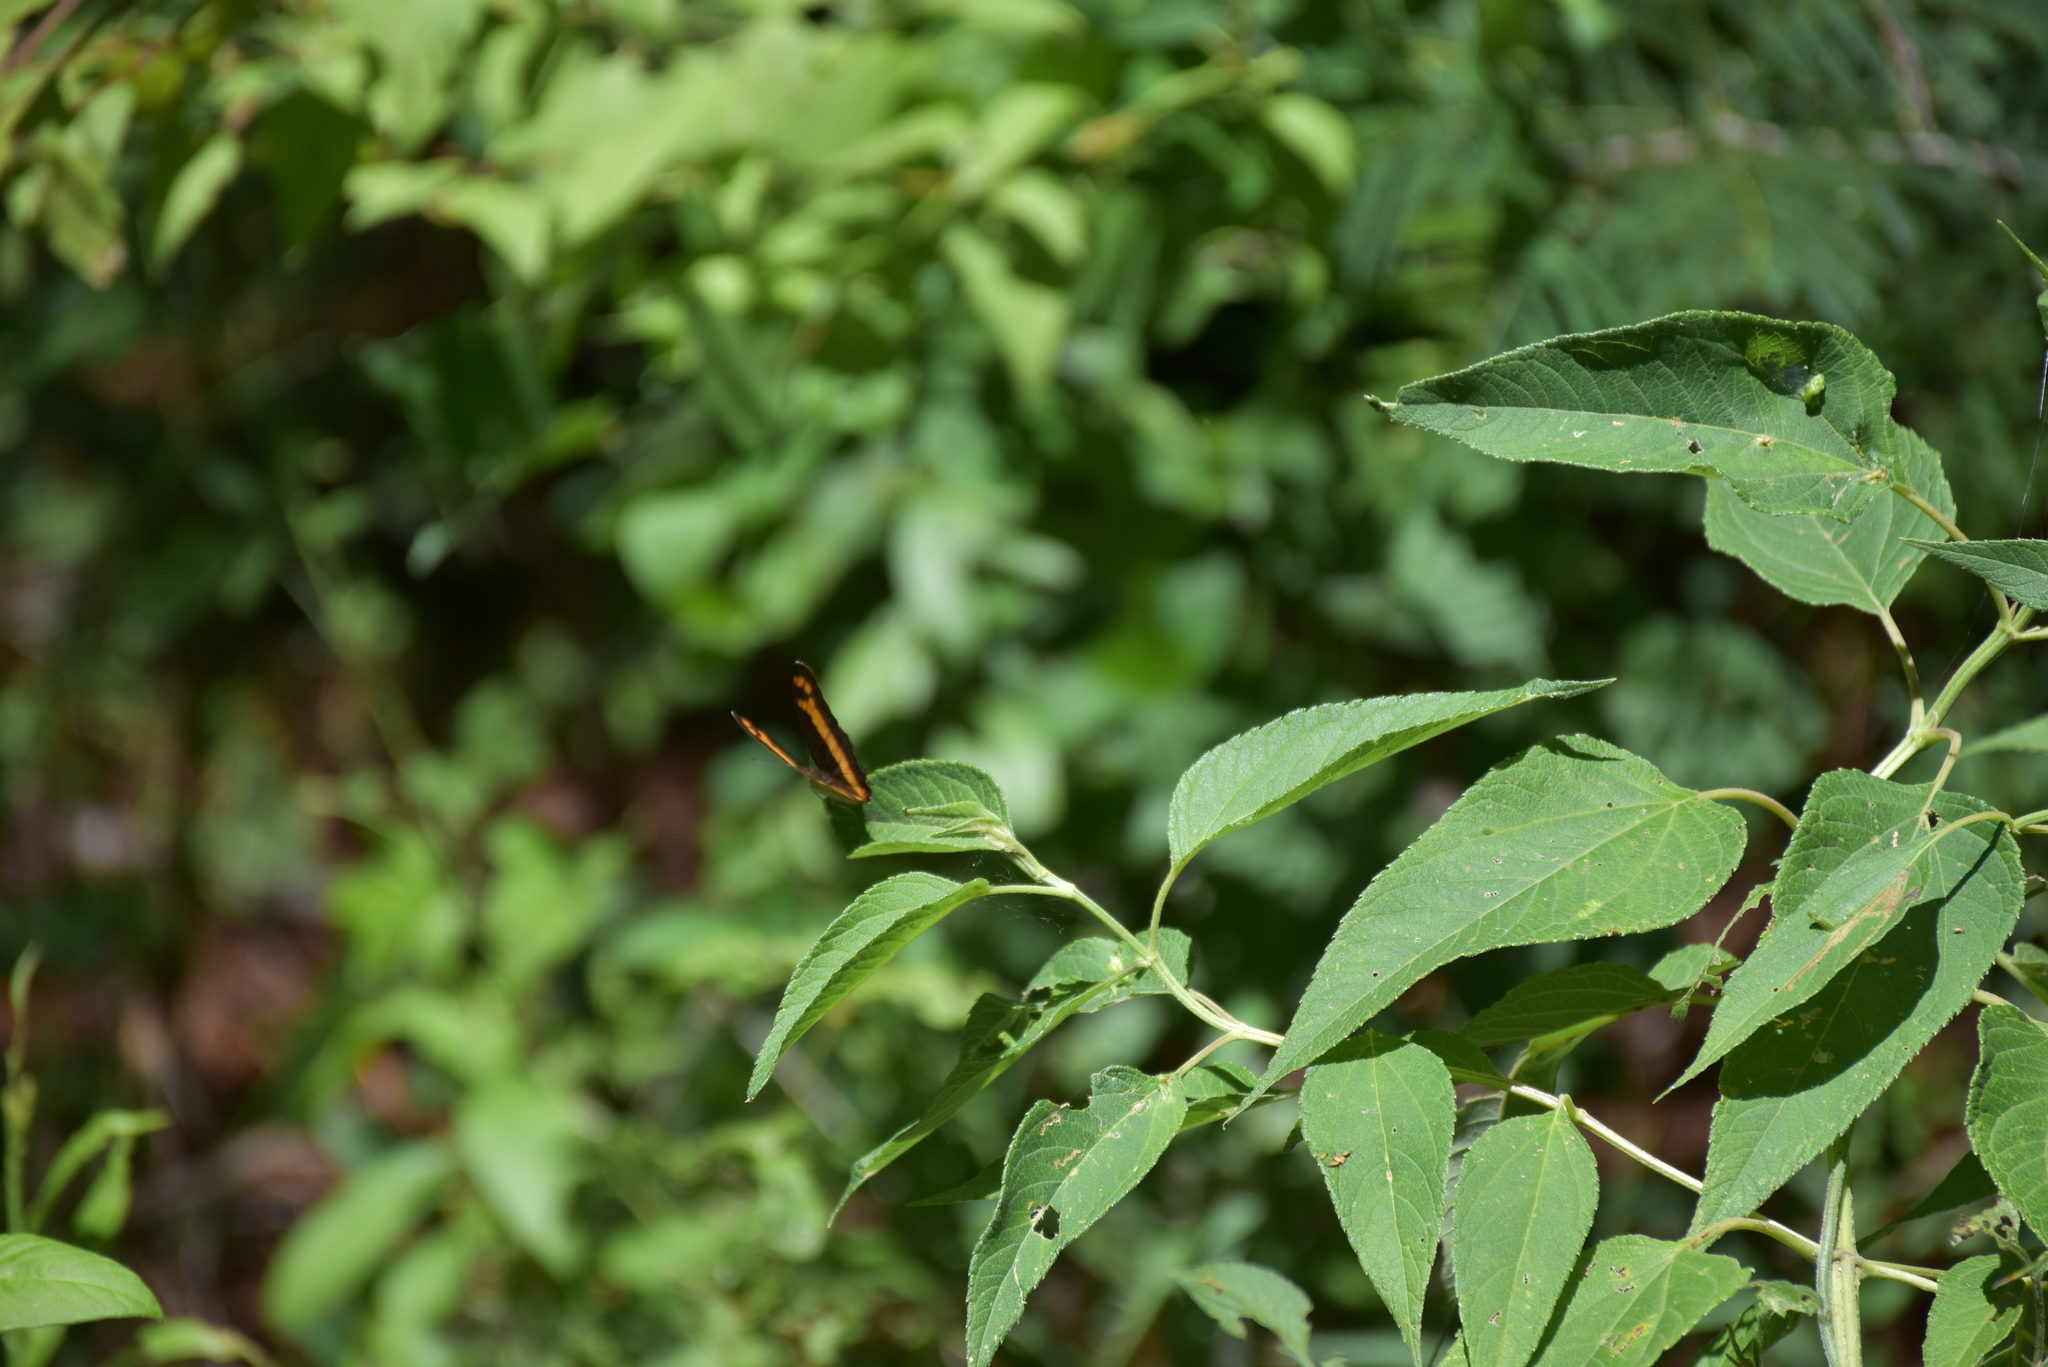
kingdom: Animalia
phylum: Arthropoda
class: Insecta
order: Lepidoptera
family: Nymphalidae
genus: Limenitis
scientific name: Limenitis
